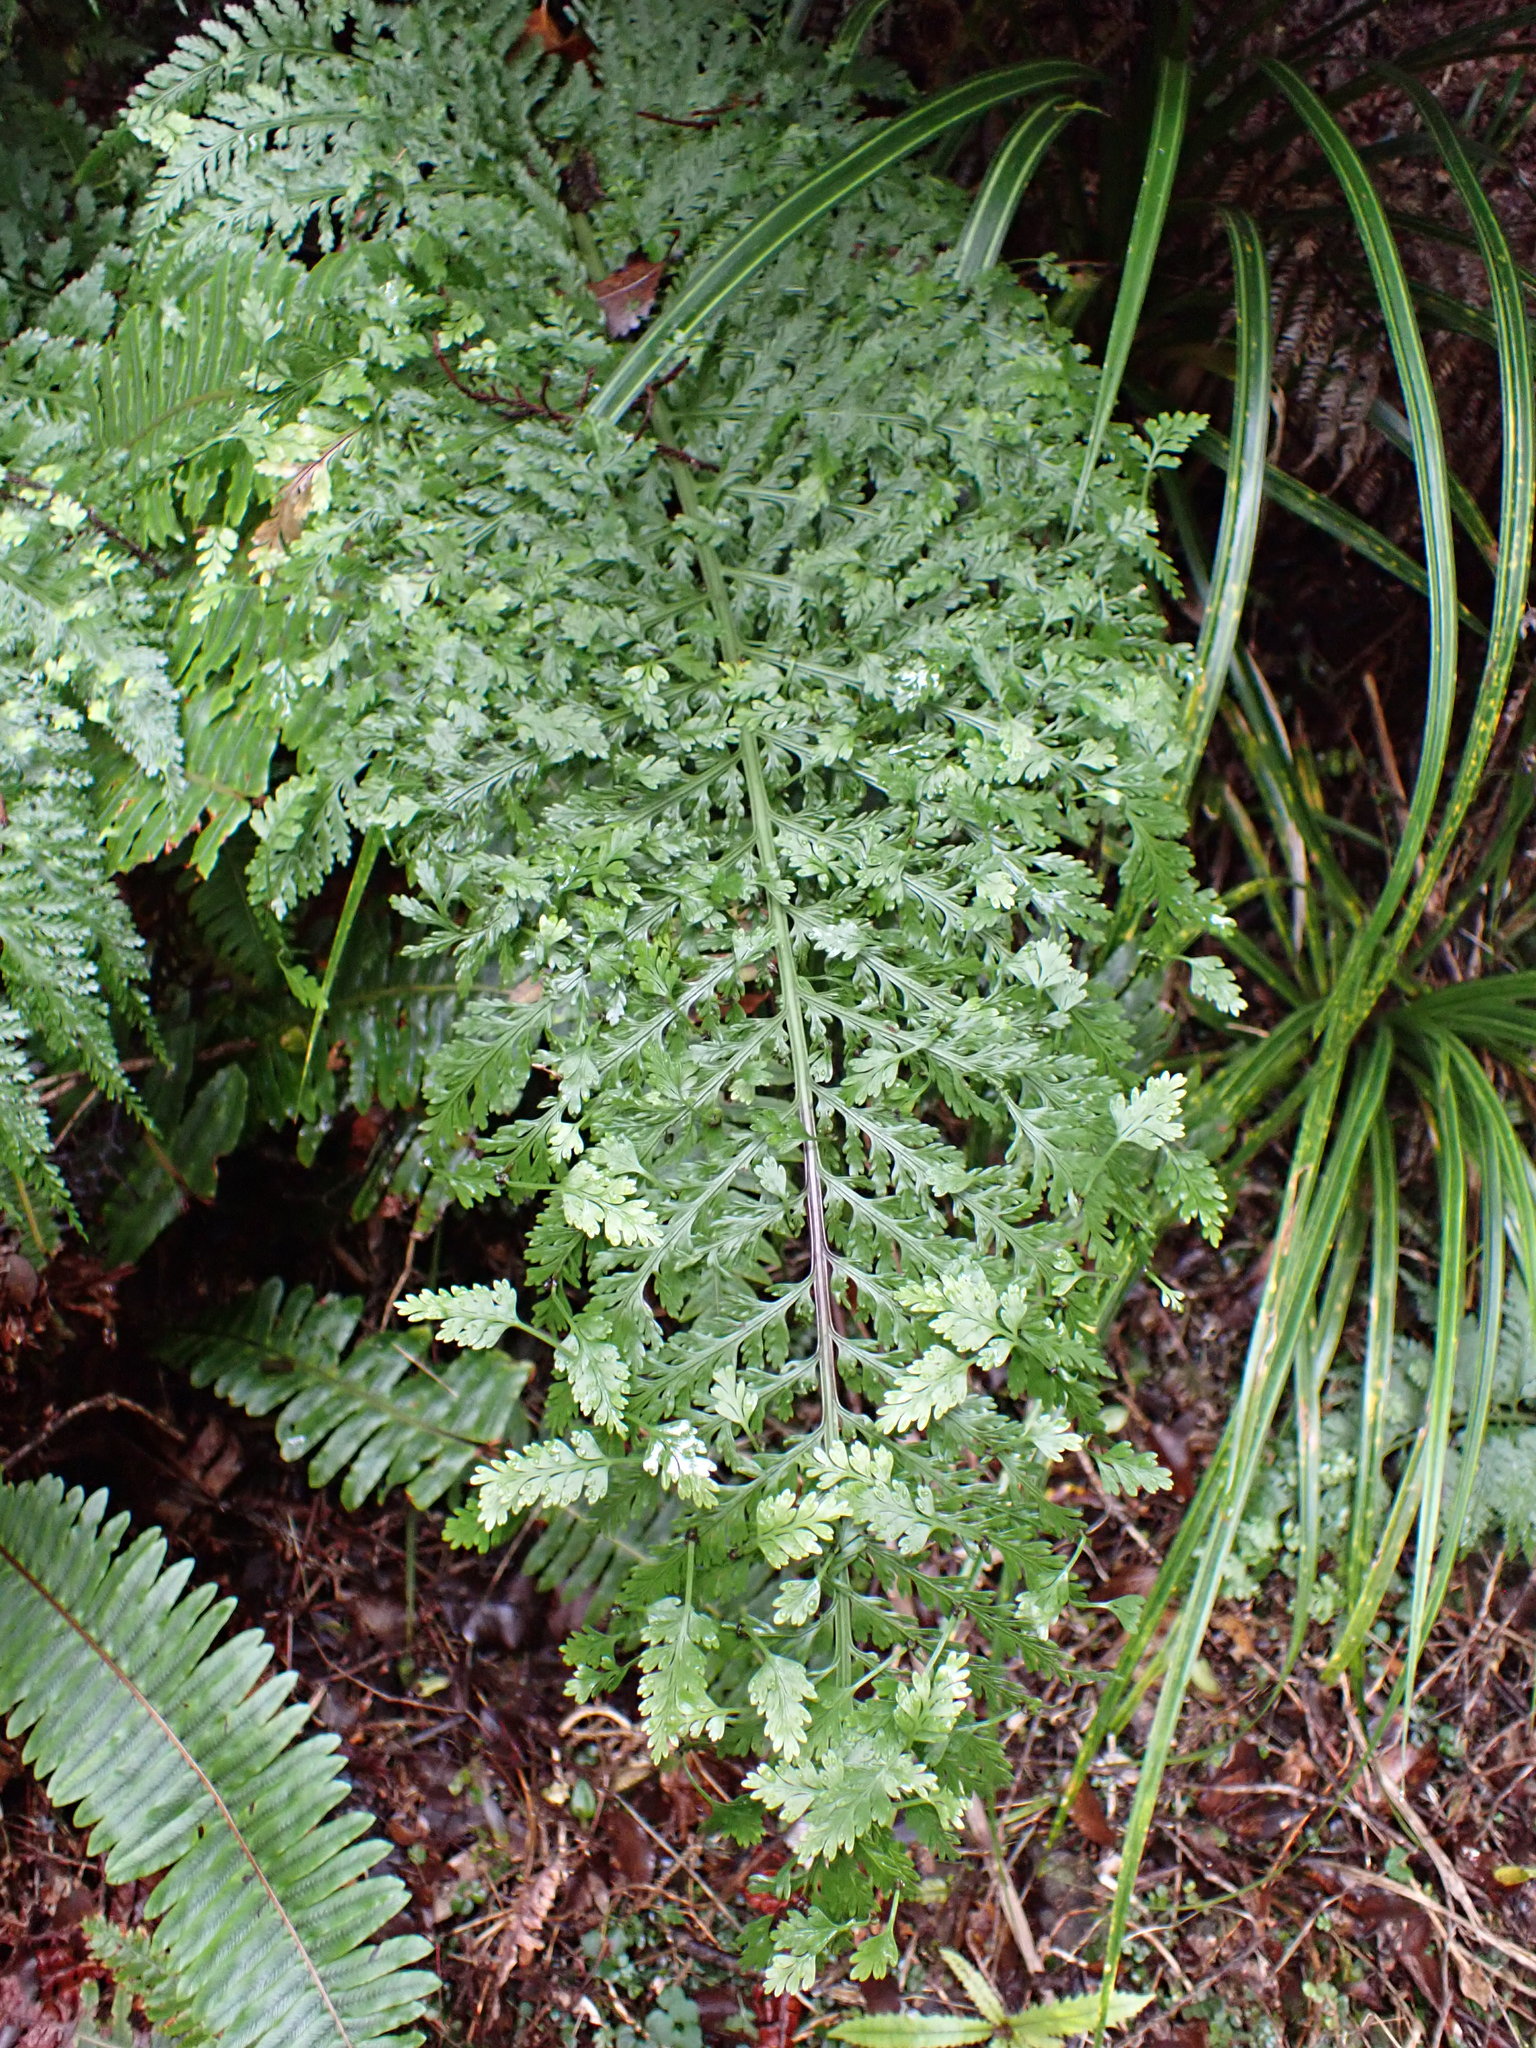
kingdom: Plantae
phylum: Tracheophyta
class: Polypodiopsida
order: Polypodiales
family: Aspleniaceae
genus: Asplenium
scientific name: Asplenium bulbiferum
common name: Mother fern
